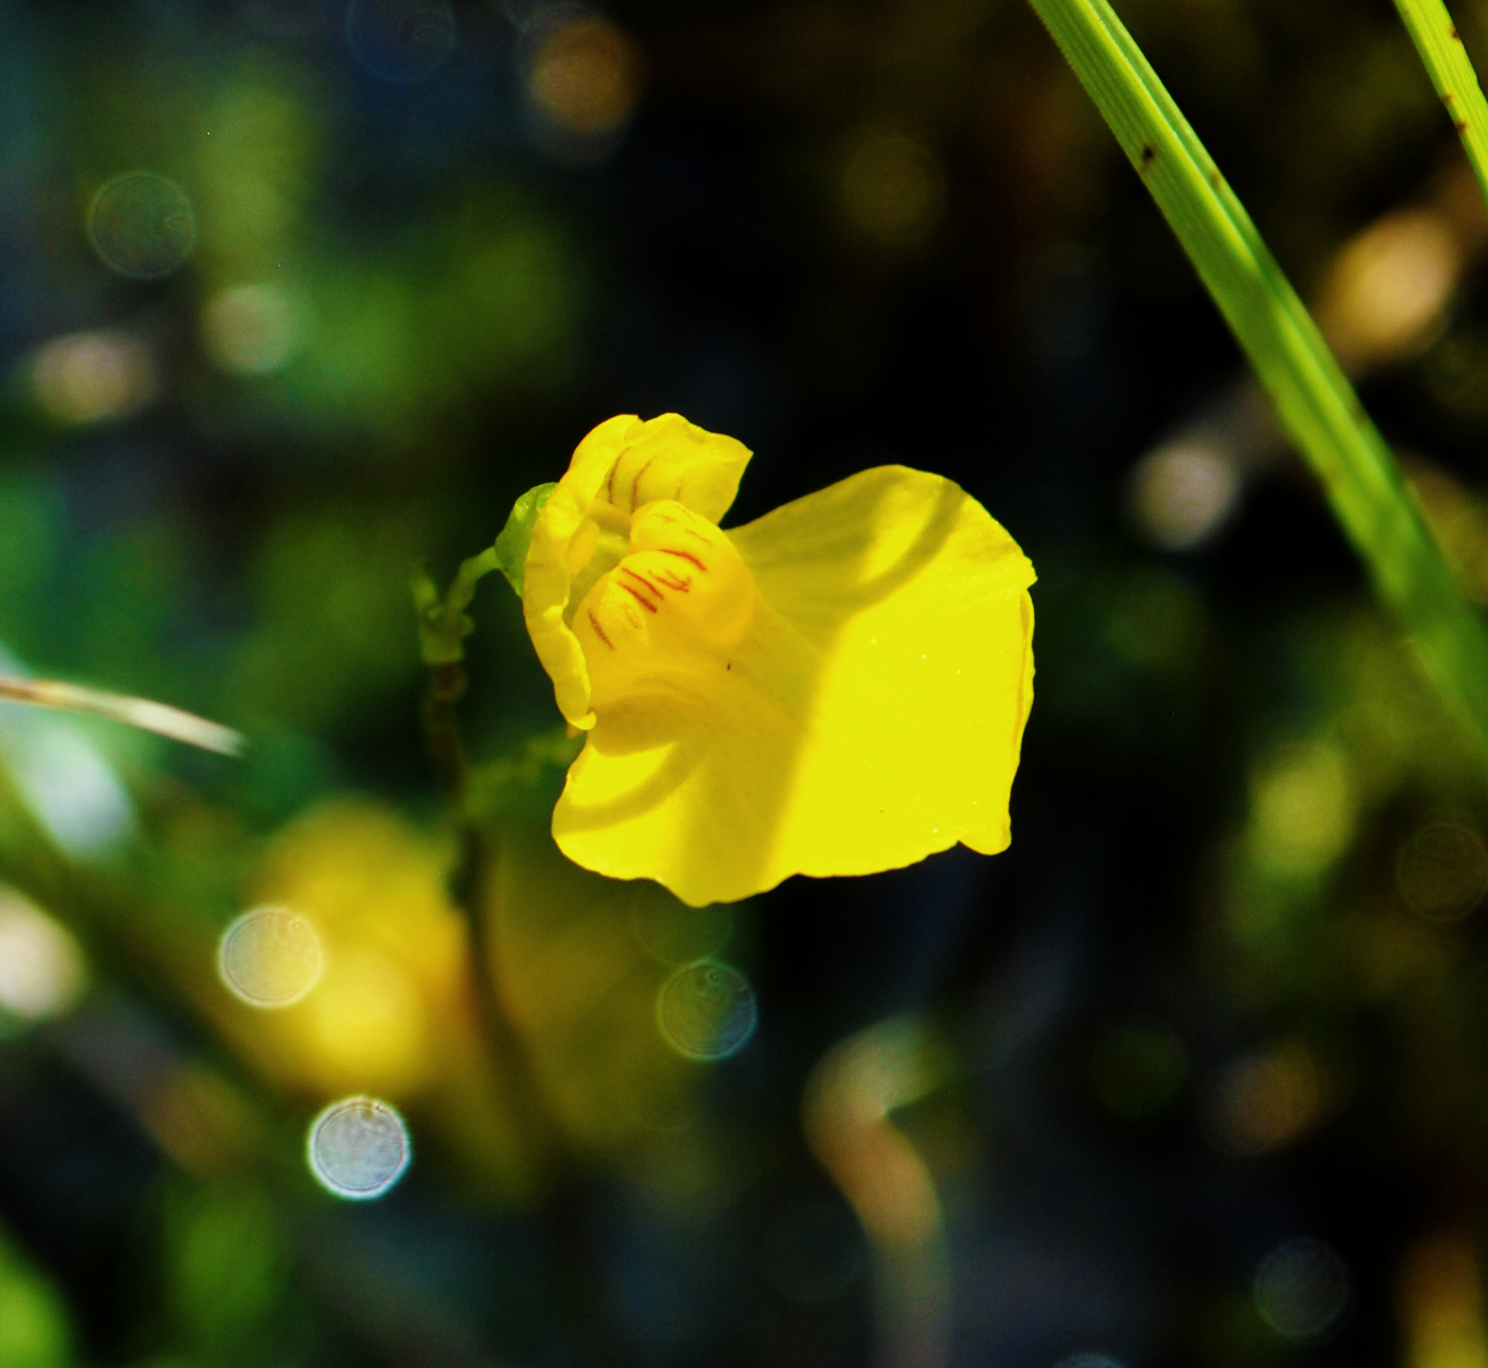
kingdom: Plantae
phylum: Tracheophyta
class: Magnoliopsida
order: Lamiales
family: Lentibulariaceae
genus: Utricularia
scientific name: Utricularia intermedia
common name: Intermediate bladderwort
